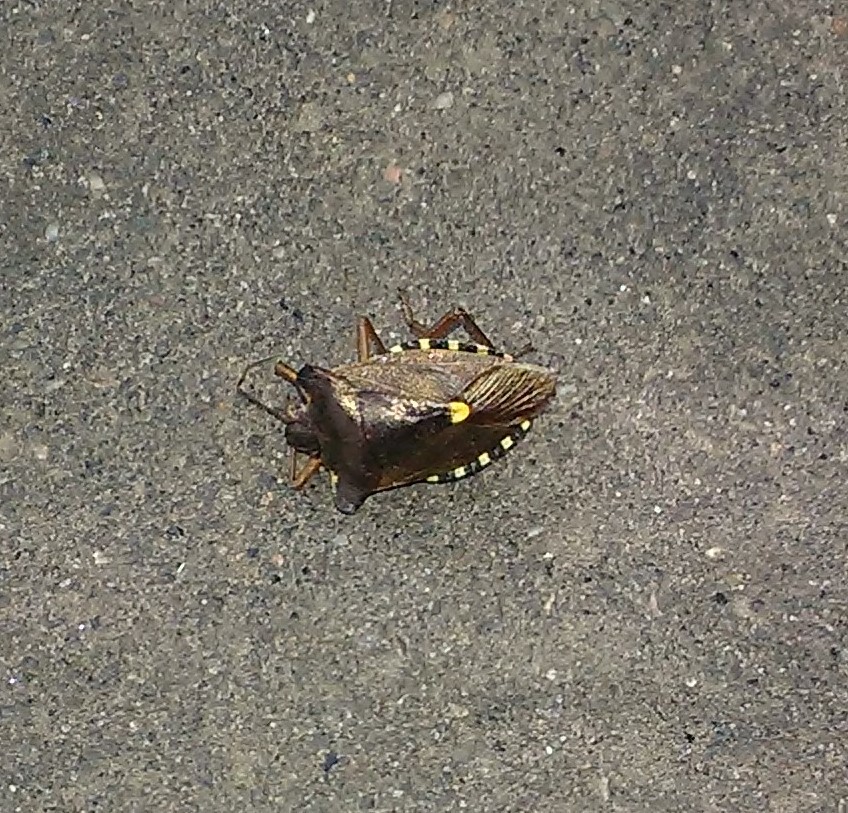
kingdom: Animalia
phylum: Arthropoda
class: Insecta
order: Hemiptera
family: Pentatomidae
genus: Pentatoma
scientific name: Pentatoma rufipes
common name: Forest bug
